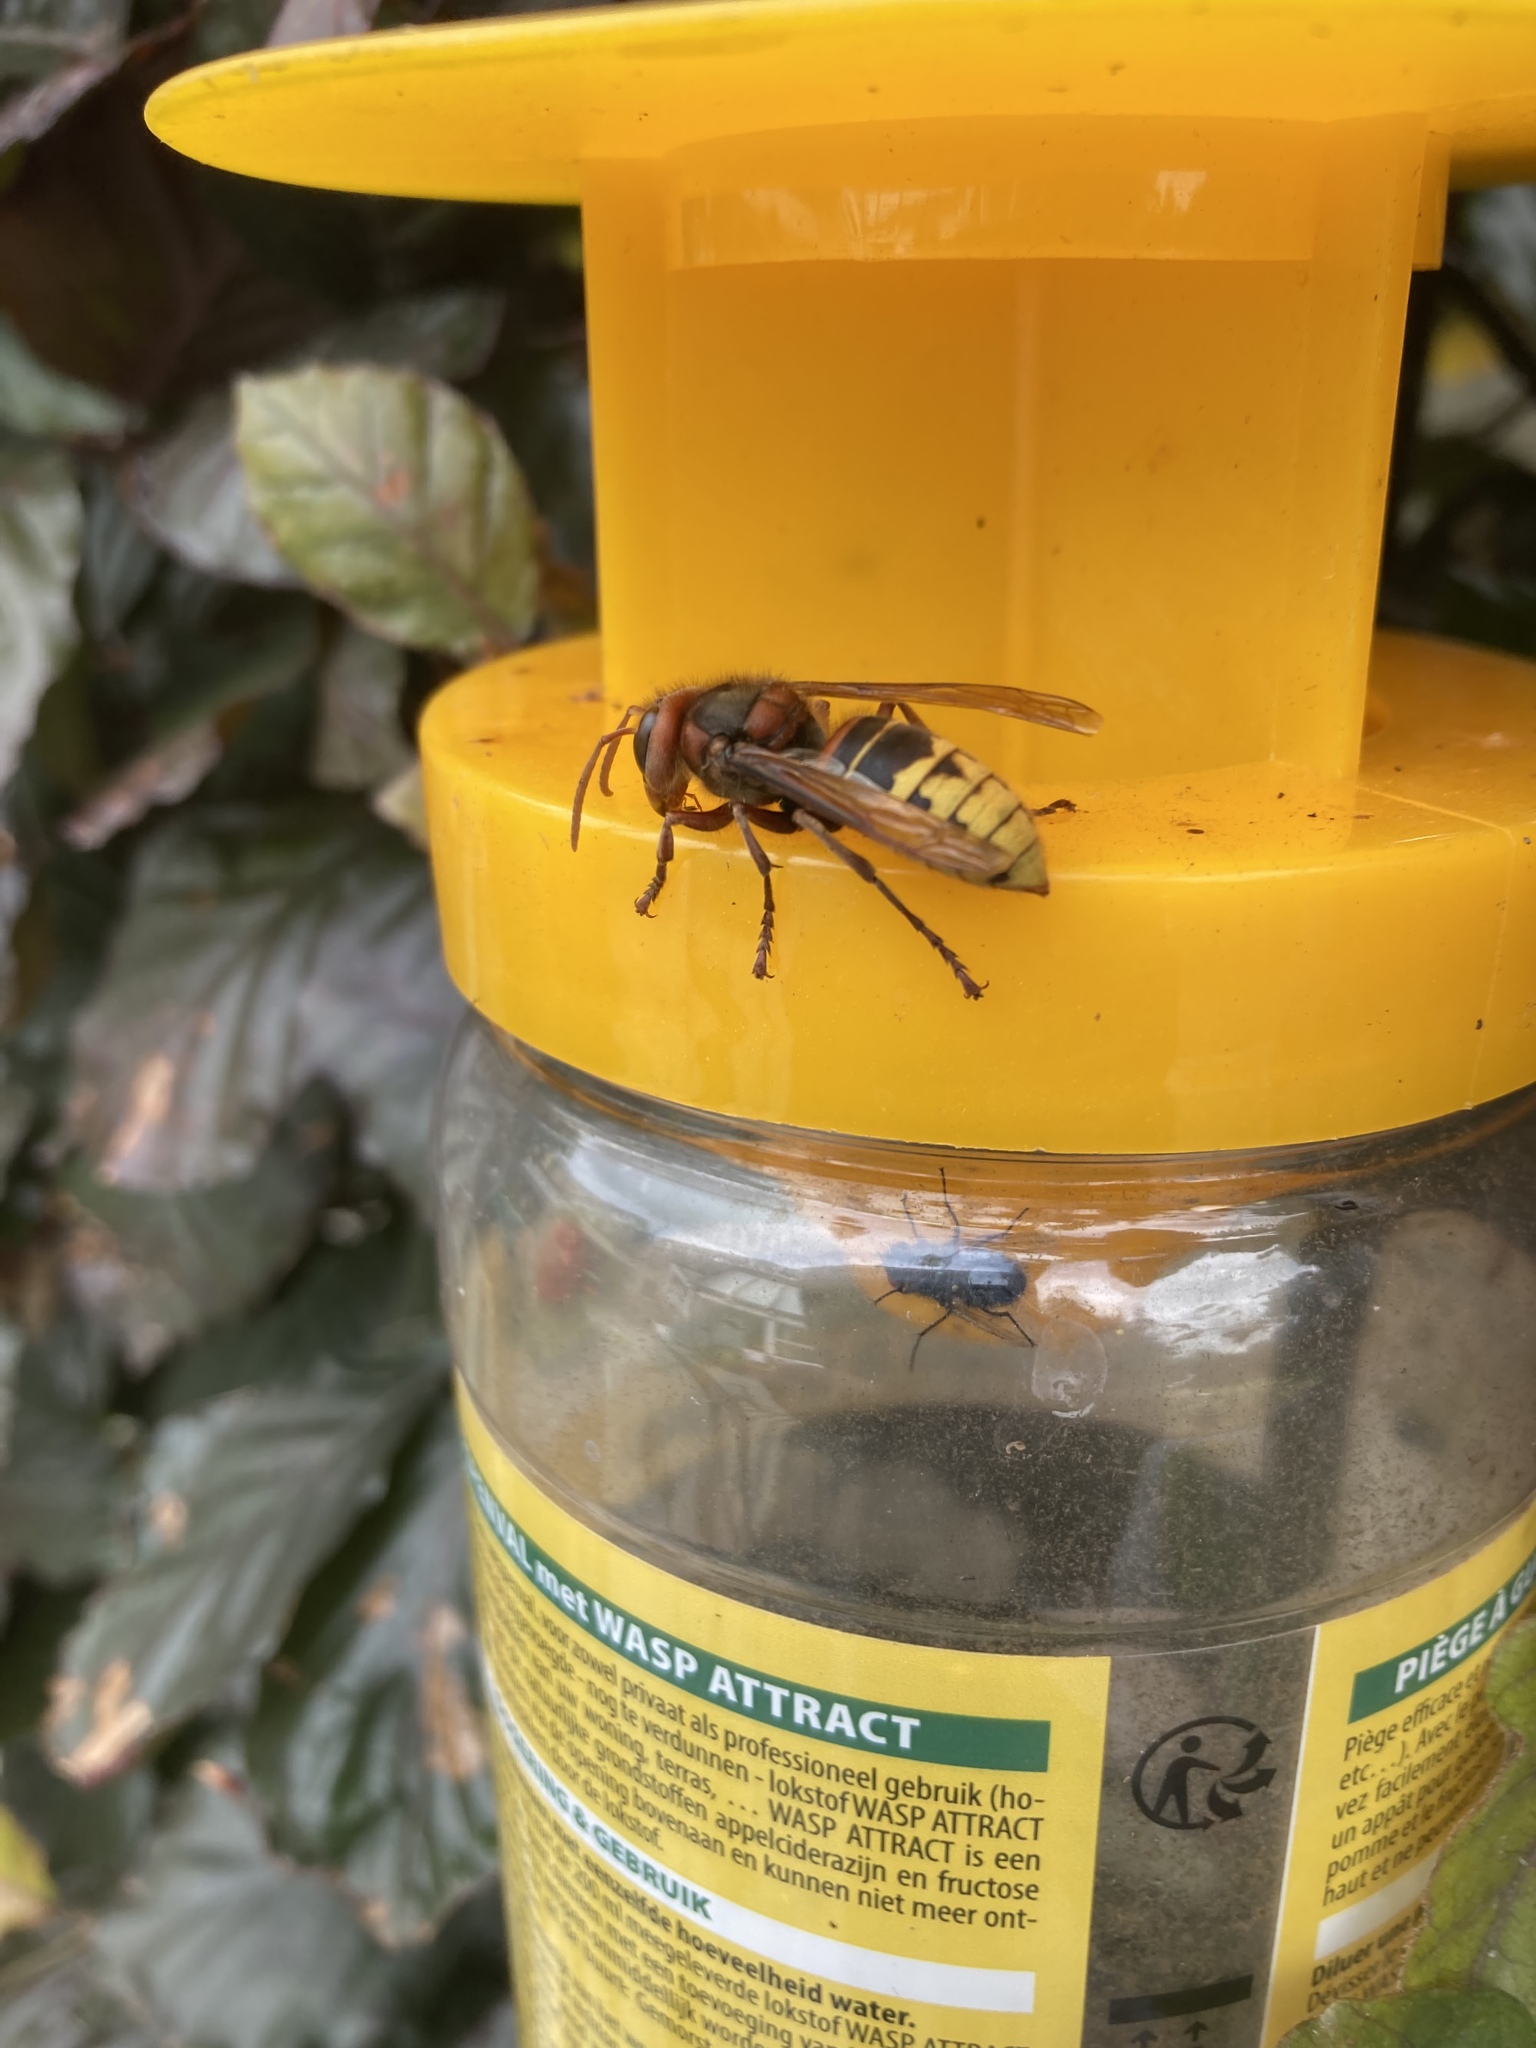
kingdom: Animalia
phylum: Arthropoda
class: Insecta
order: Hymenoptera
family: Vespidae
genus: Vespa
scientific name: Vespa crabro
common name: Hornet
